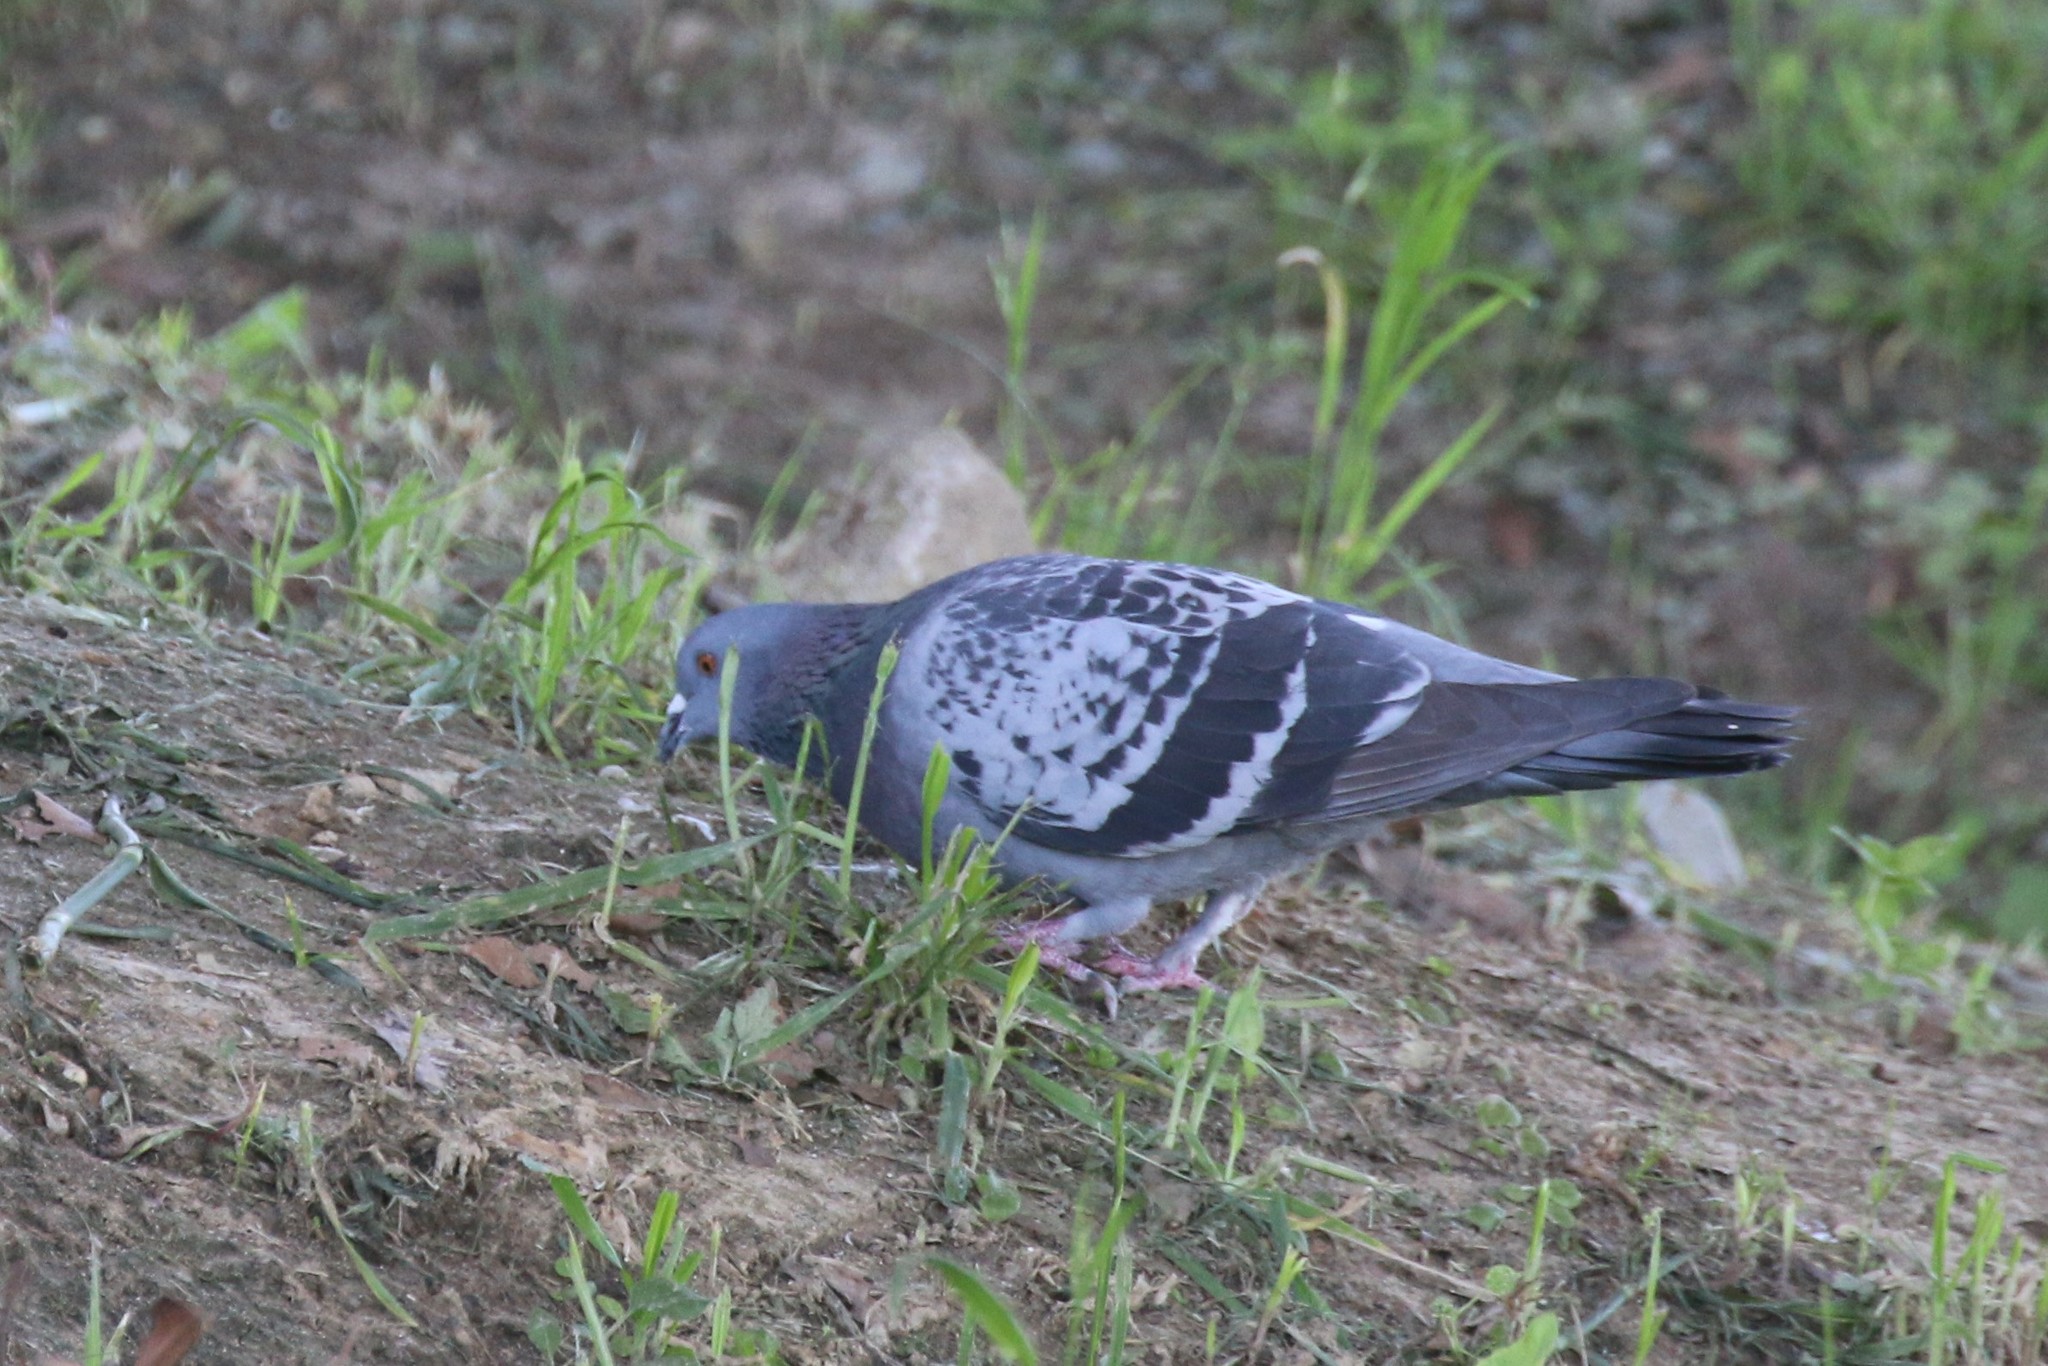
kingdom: Animalia
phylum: Chordata
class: Aves
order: Columbiformes
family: Columbidae
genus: Columba
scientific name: Columba livia
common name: Rock pigeon
